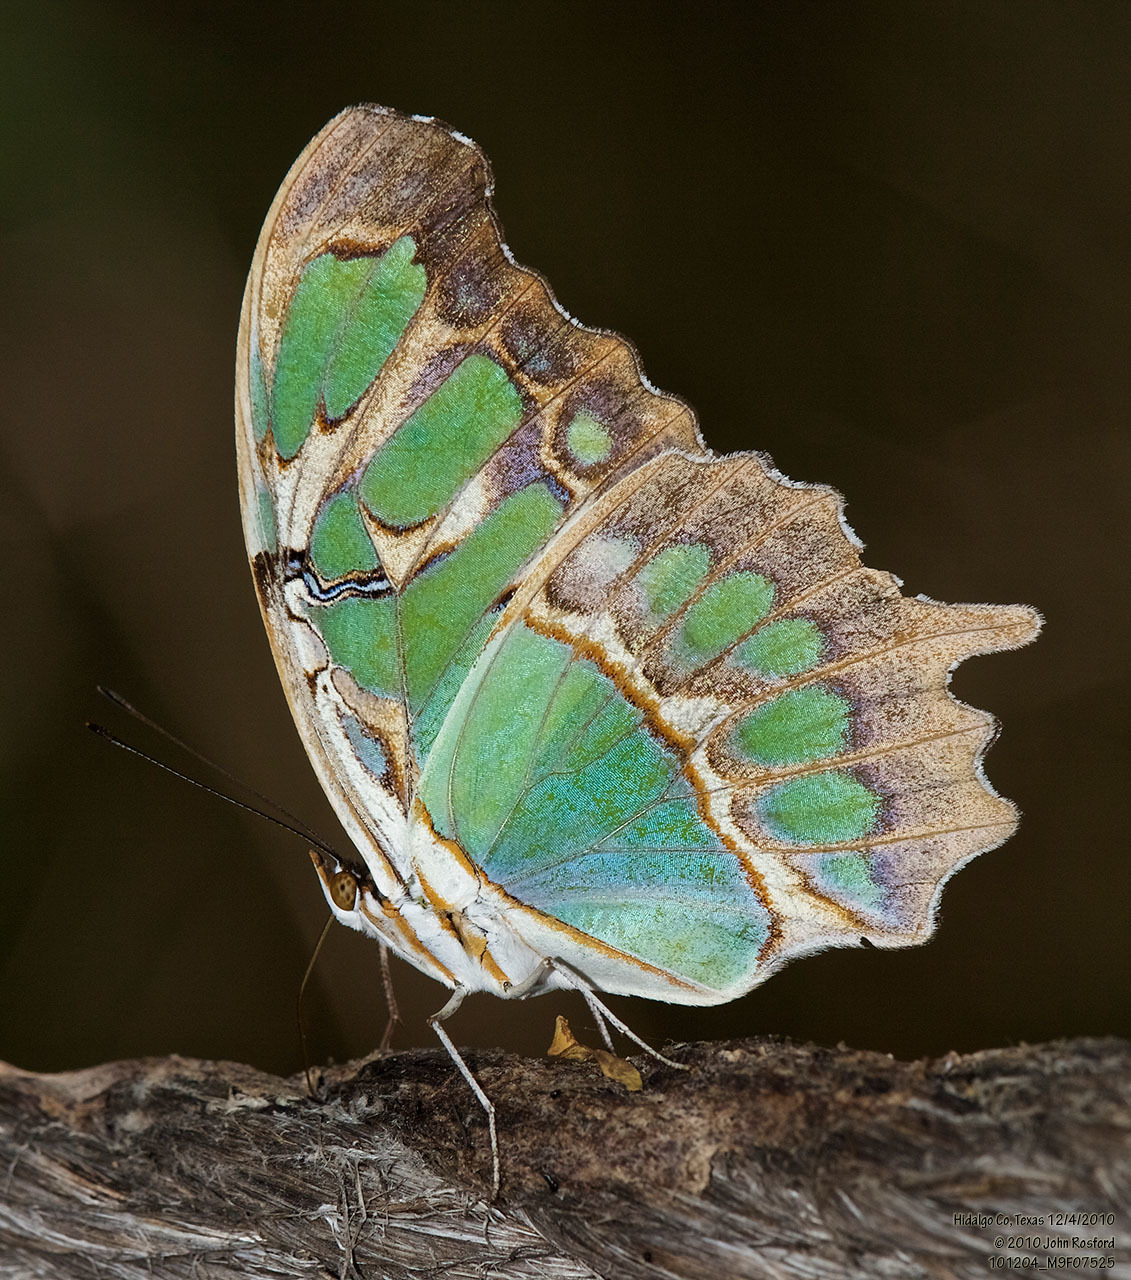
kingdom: Animalia
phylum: Arthropoda
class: Insecta
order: Lepidoptera
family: Nymphalidae
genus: Siproeta
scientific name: Siproeta stelenes
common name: Malachite
